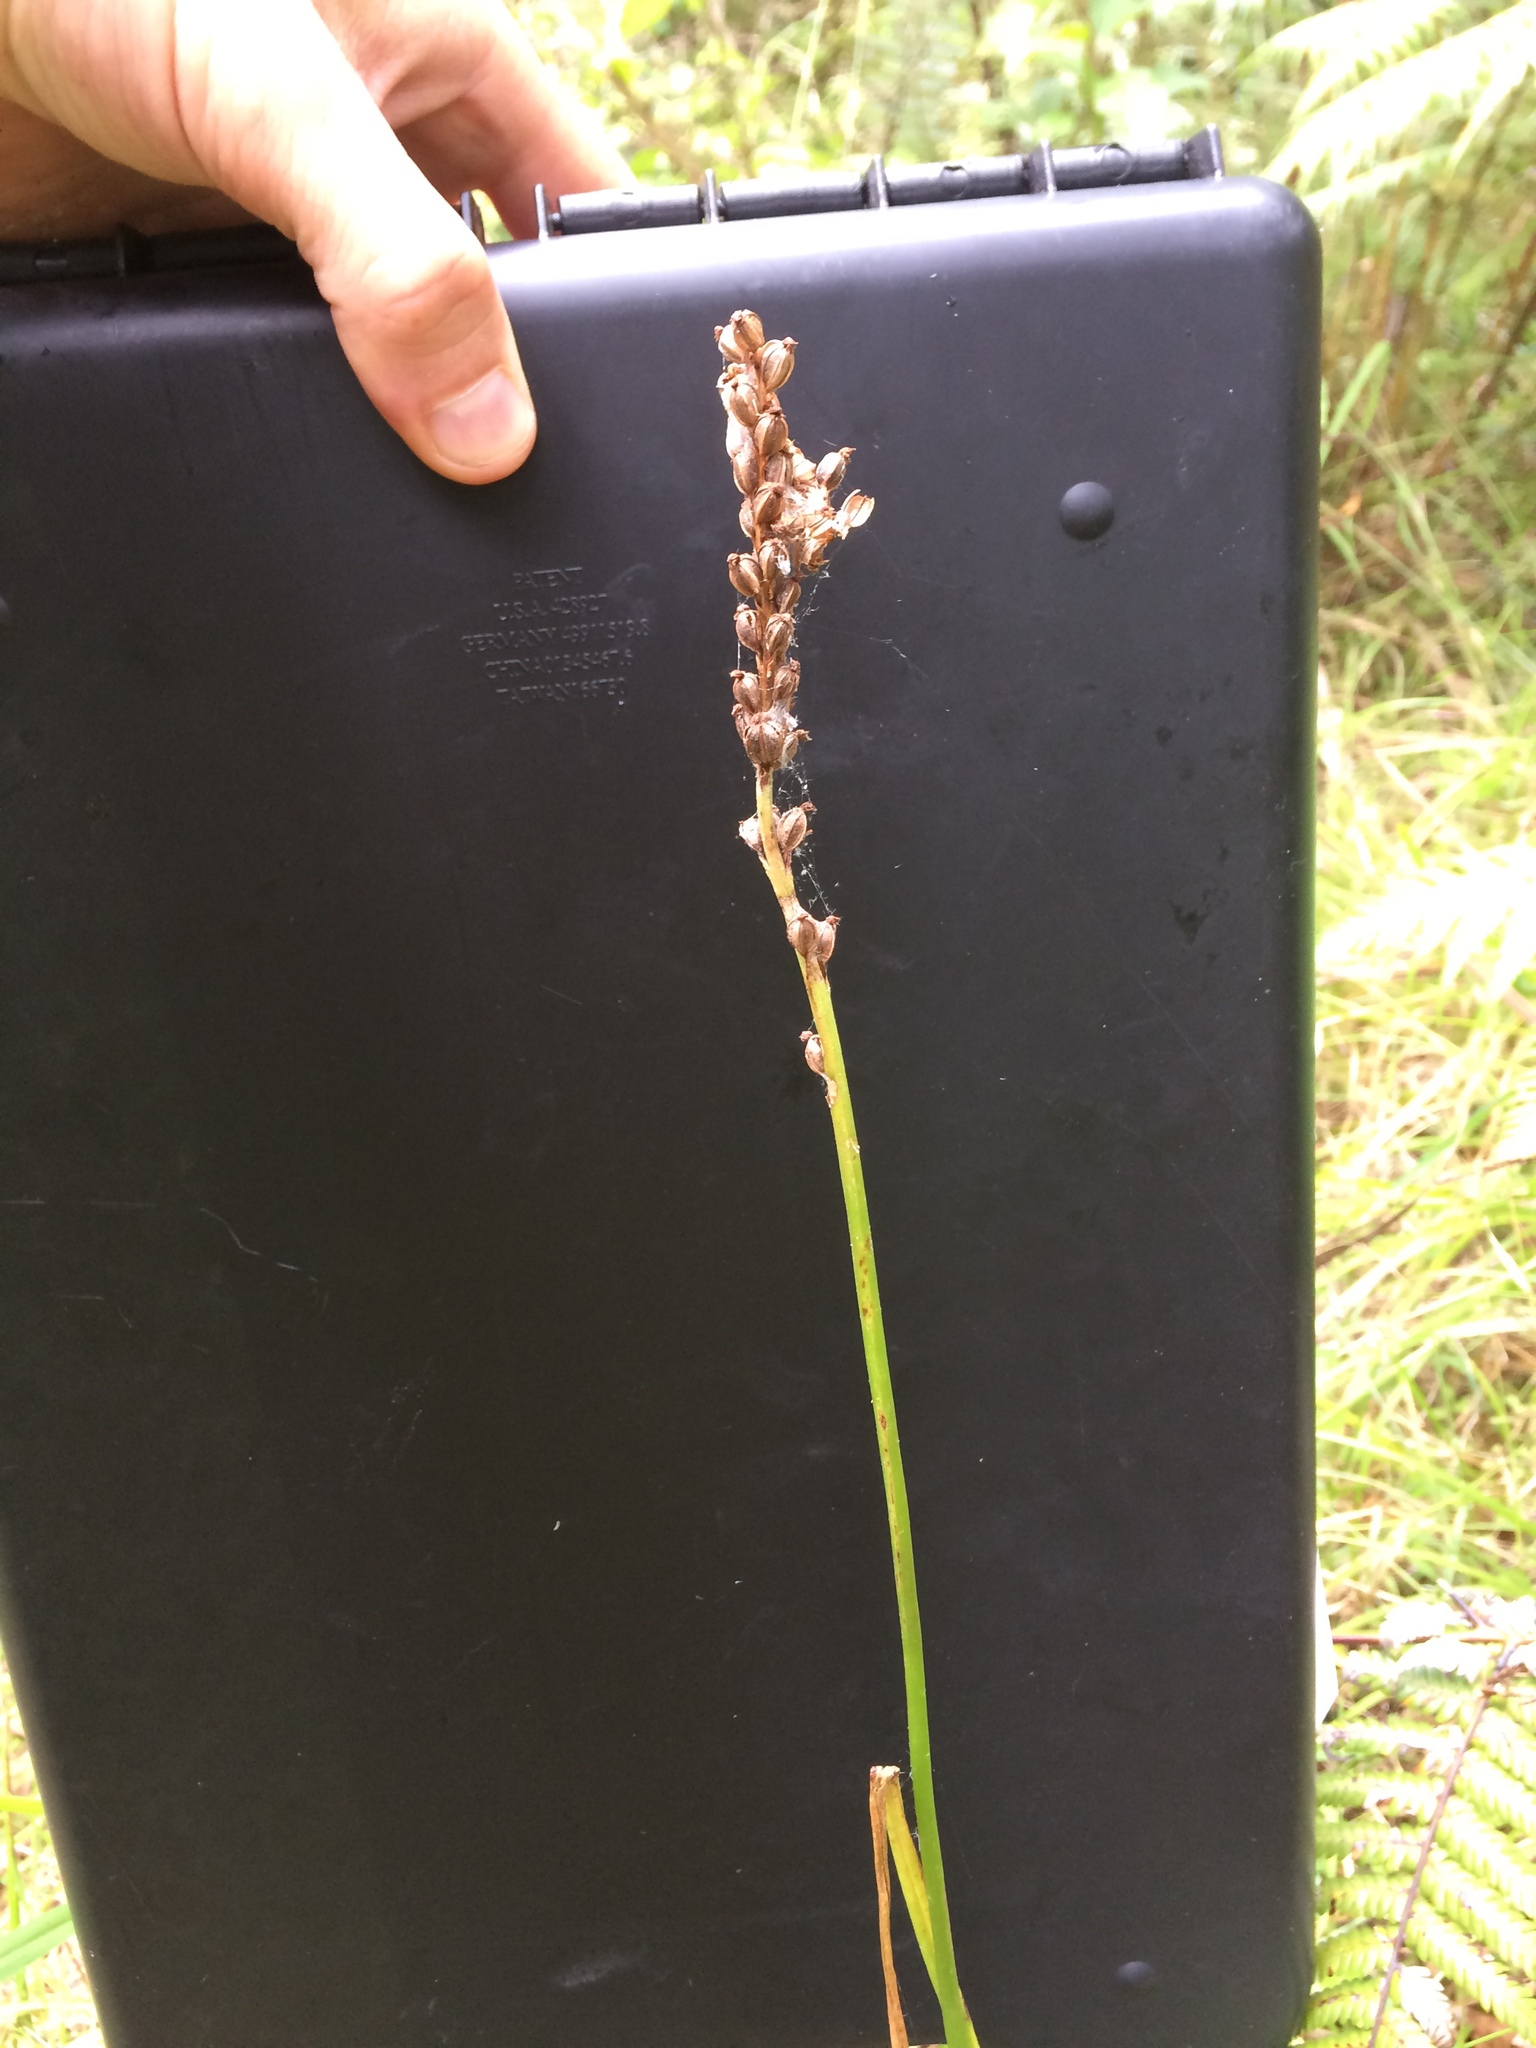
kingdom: Plantae
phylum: Tracheophyta
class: Liliopsida
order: Asparagales
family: Orchidaceae
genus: Microtis
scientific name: Microtis unifolia
